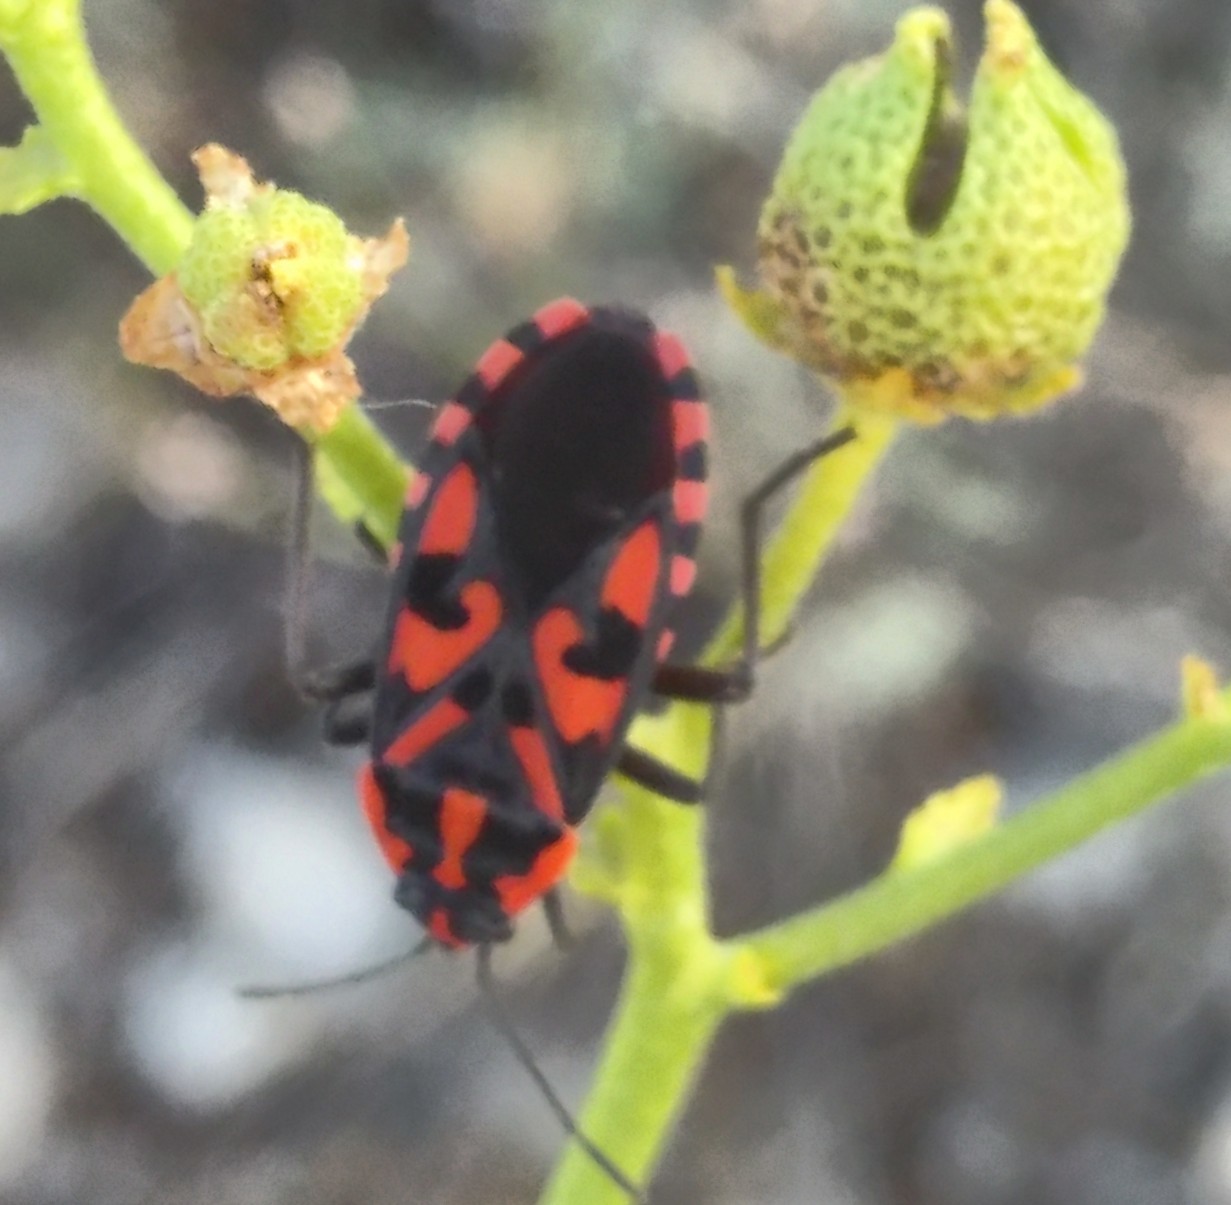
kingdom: Animalia
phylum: Arthropoda
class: Insecta
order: Hemiptera
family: Lygaeidae
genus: Spilostethus
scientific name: Spilostethus saxatilis
